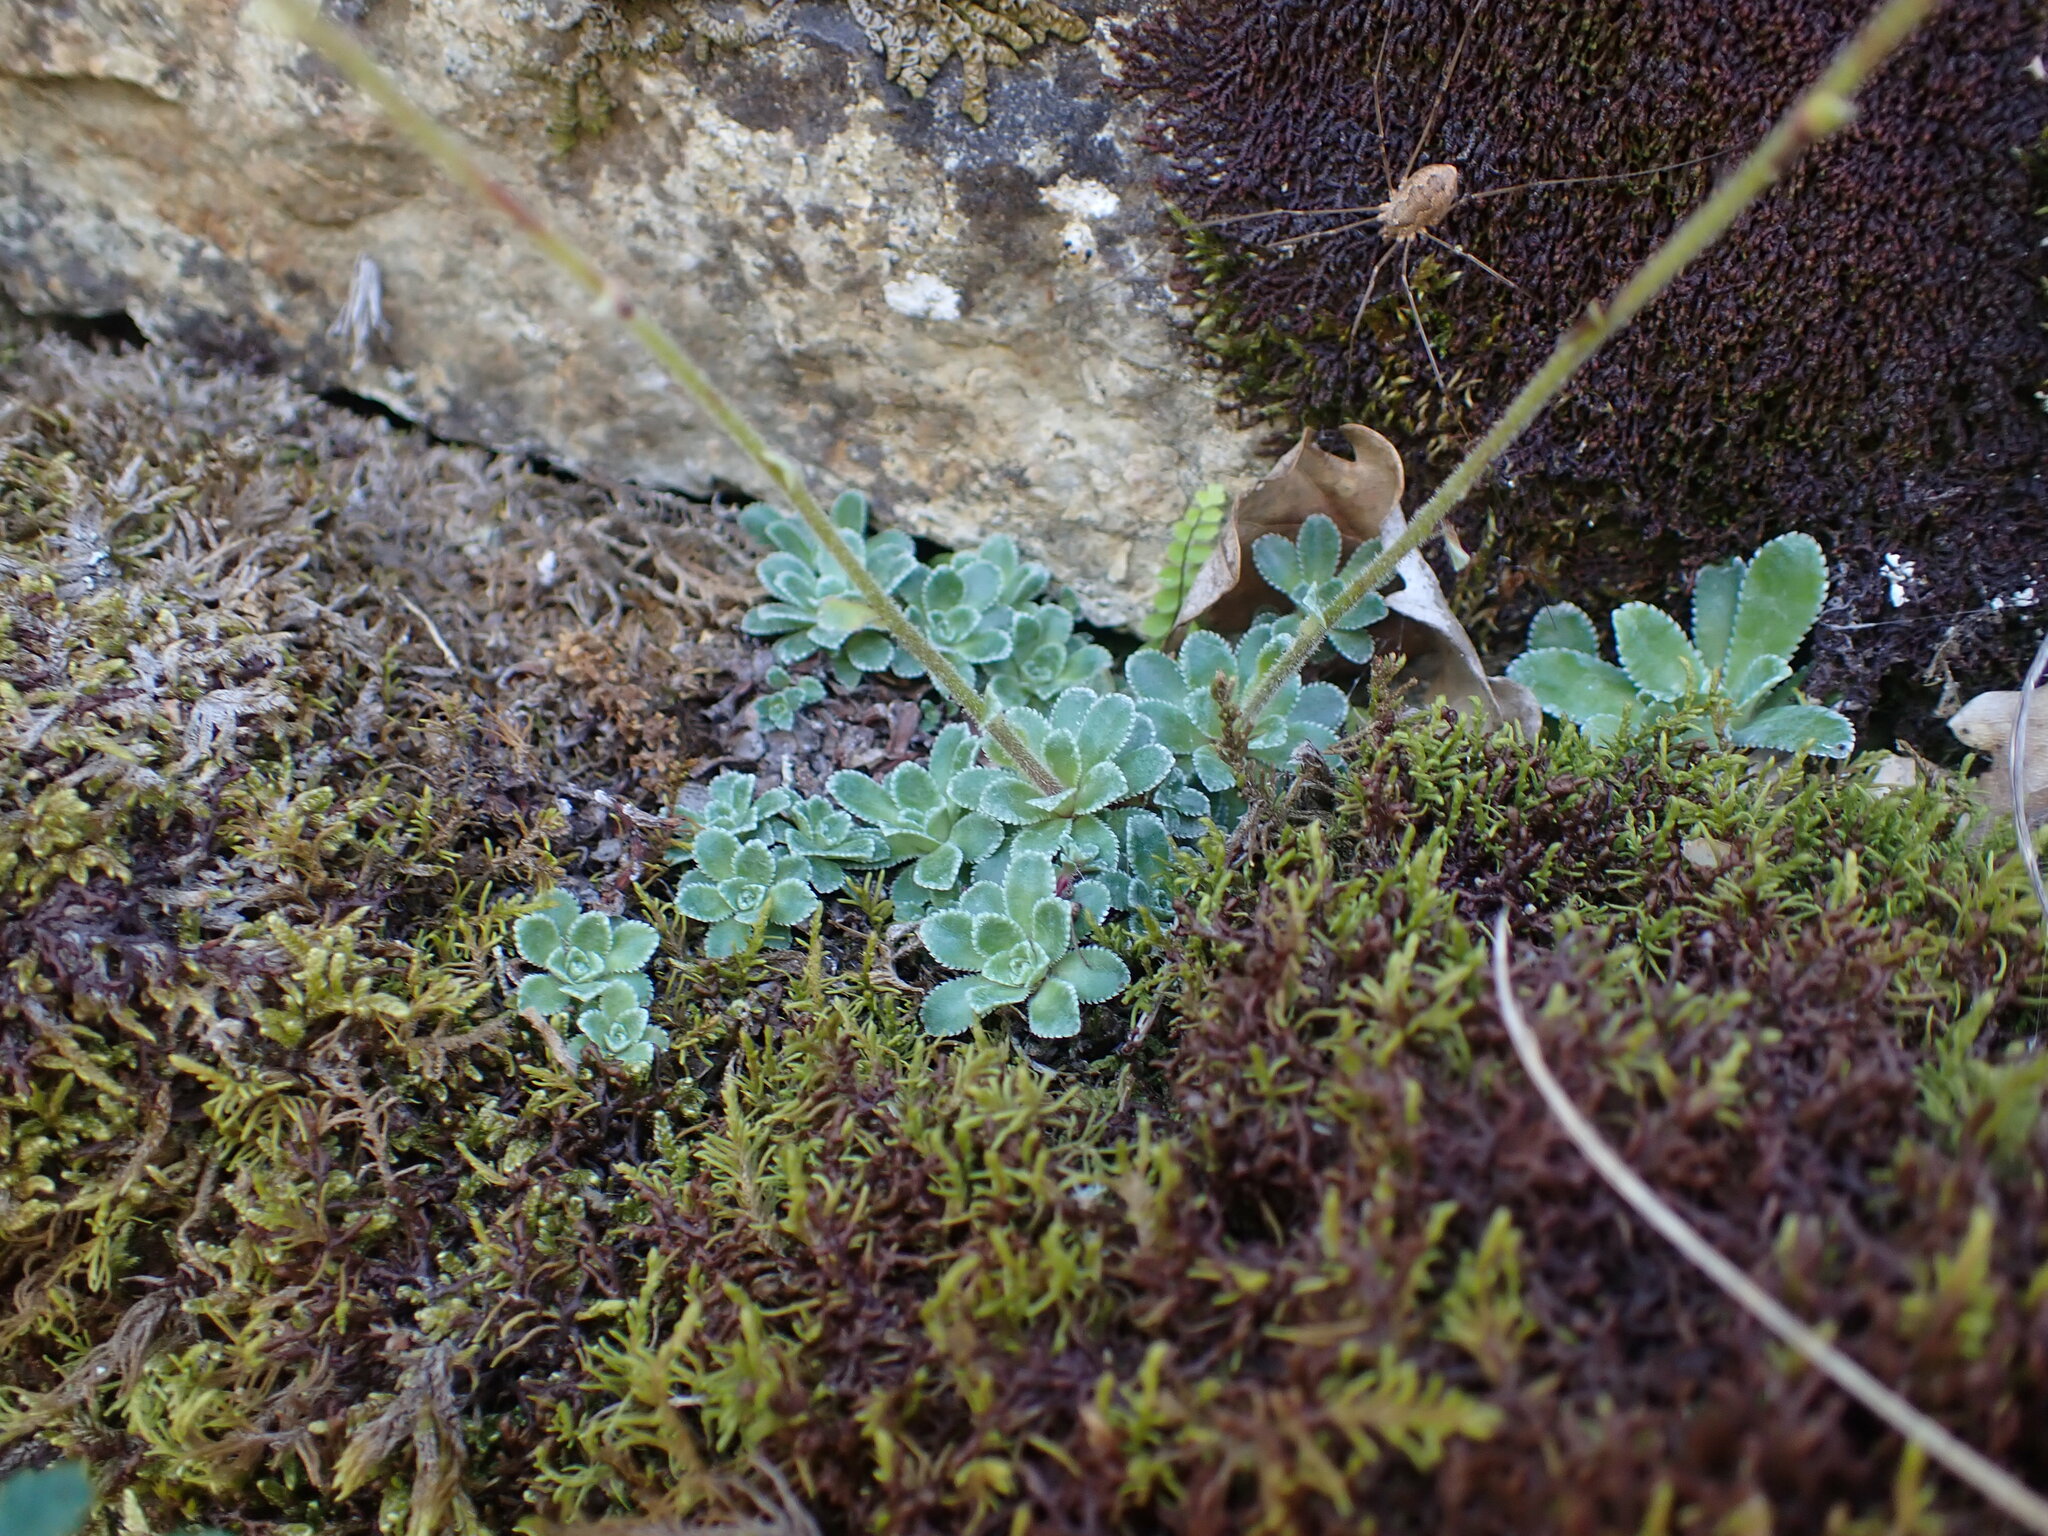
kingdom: Plantae
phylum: Tracheophyta
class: Magnoliopsida
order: Saxifragales
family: Saxifragaceae
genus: Saxifraga
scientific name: Saxifraga paniculata
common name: Livelong saxifrage
